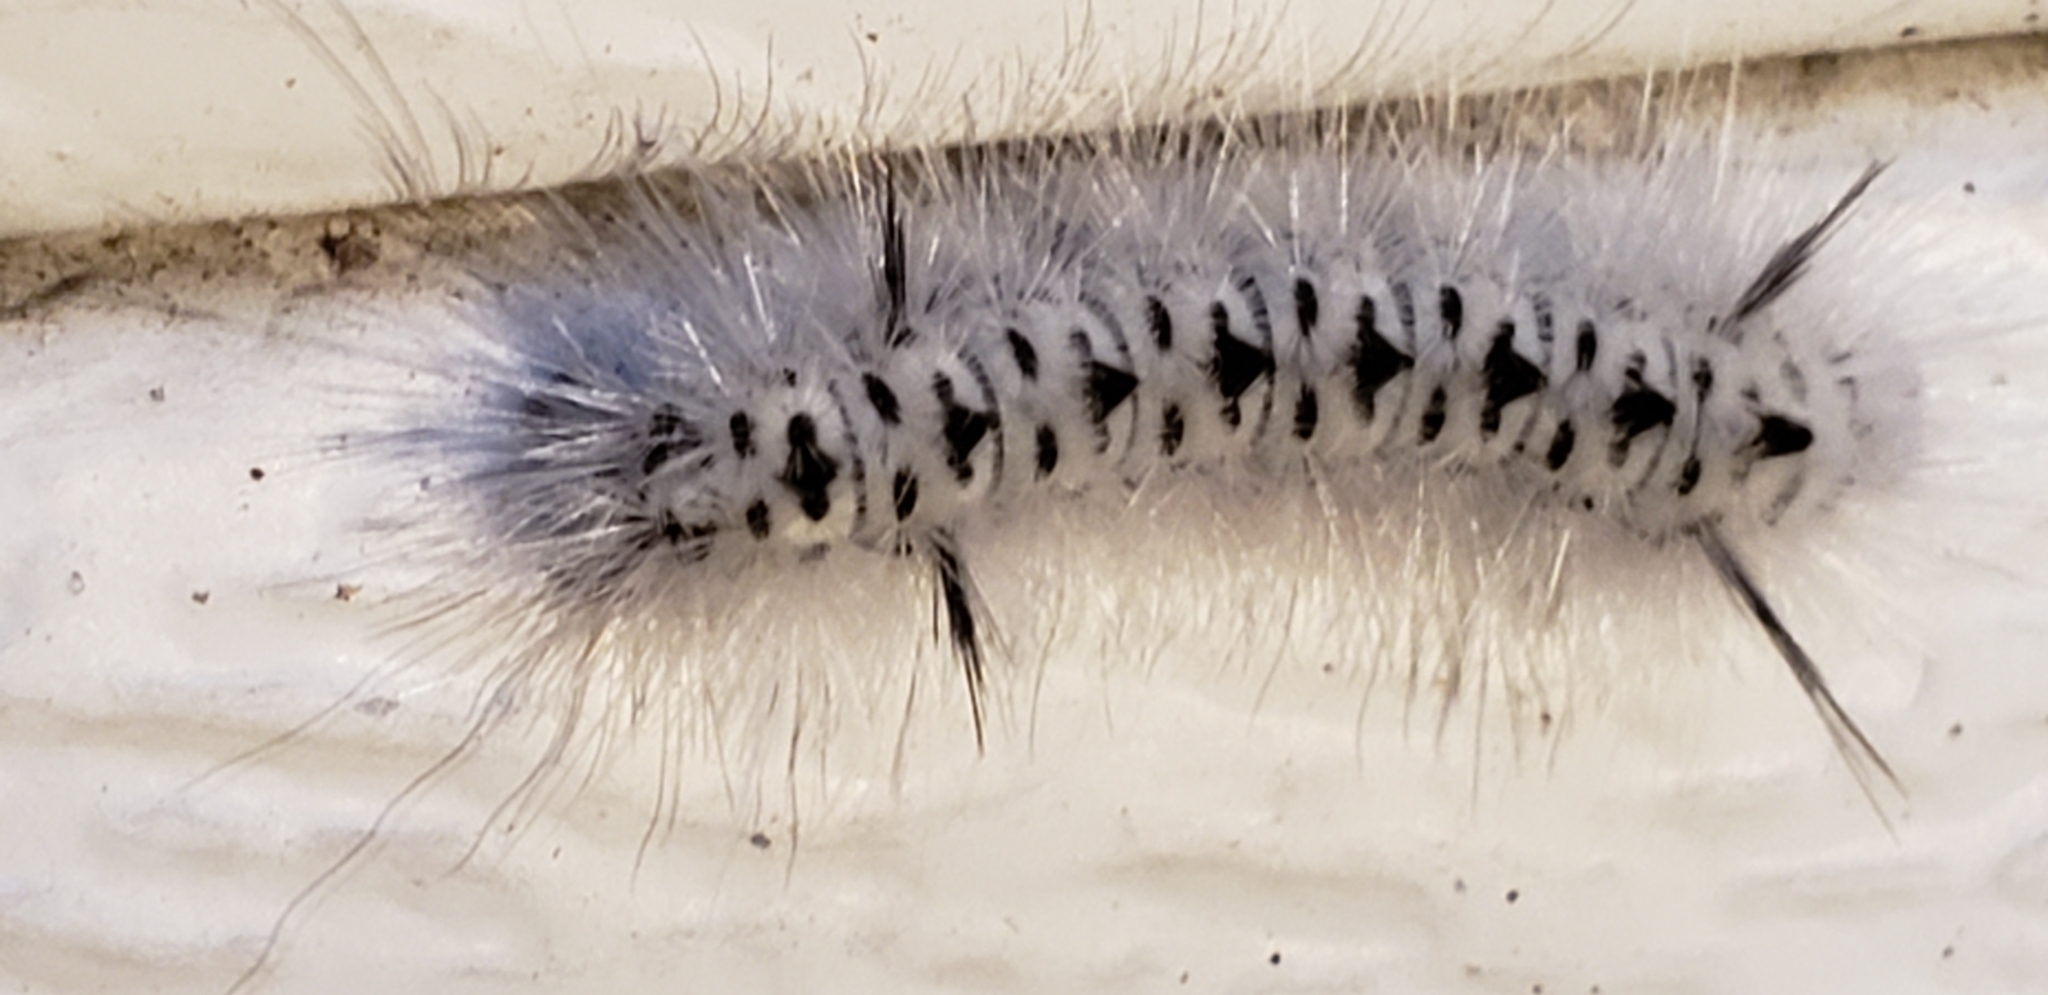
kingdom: Animalia
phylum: Arthropoda
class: Insecta
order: Lepidoptera
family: Erebidae
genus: Lophocampa
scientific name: Lophocampa caryae
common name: Hickory tussock moth
